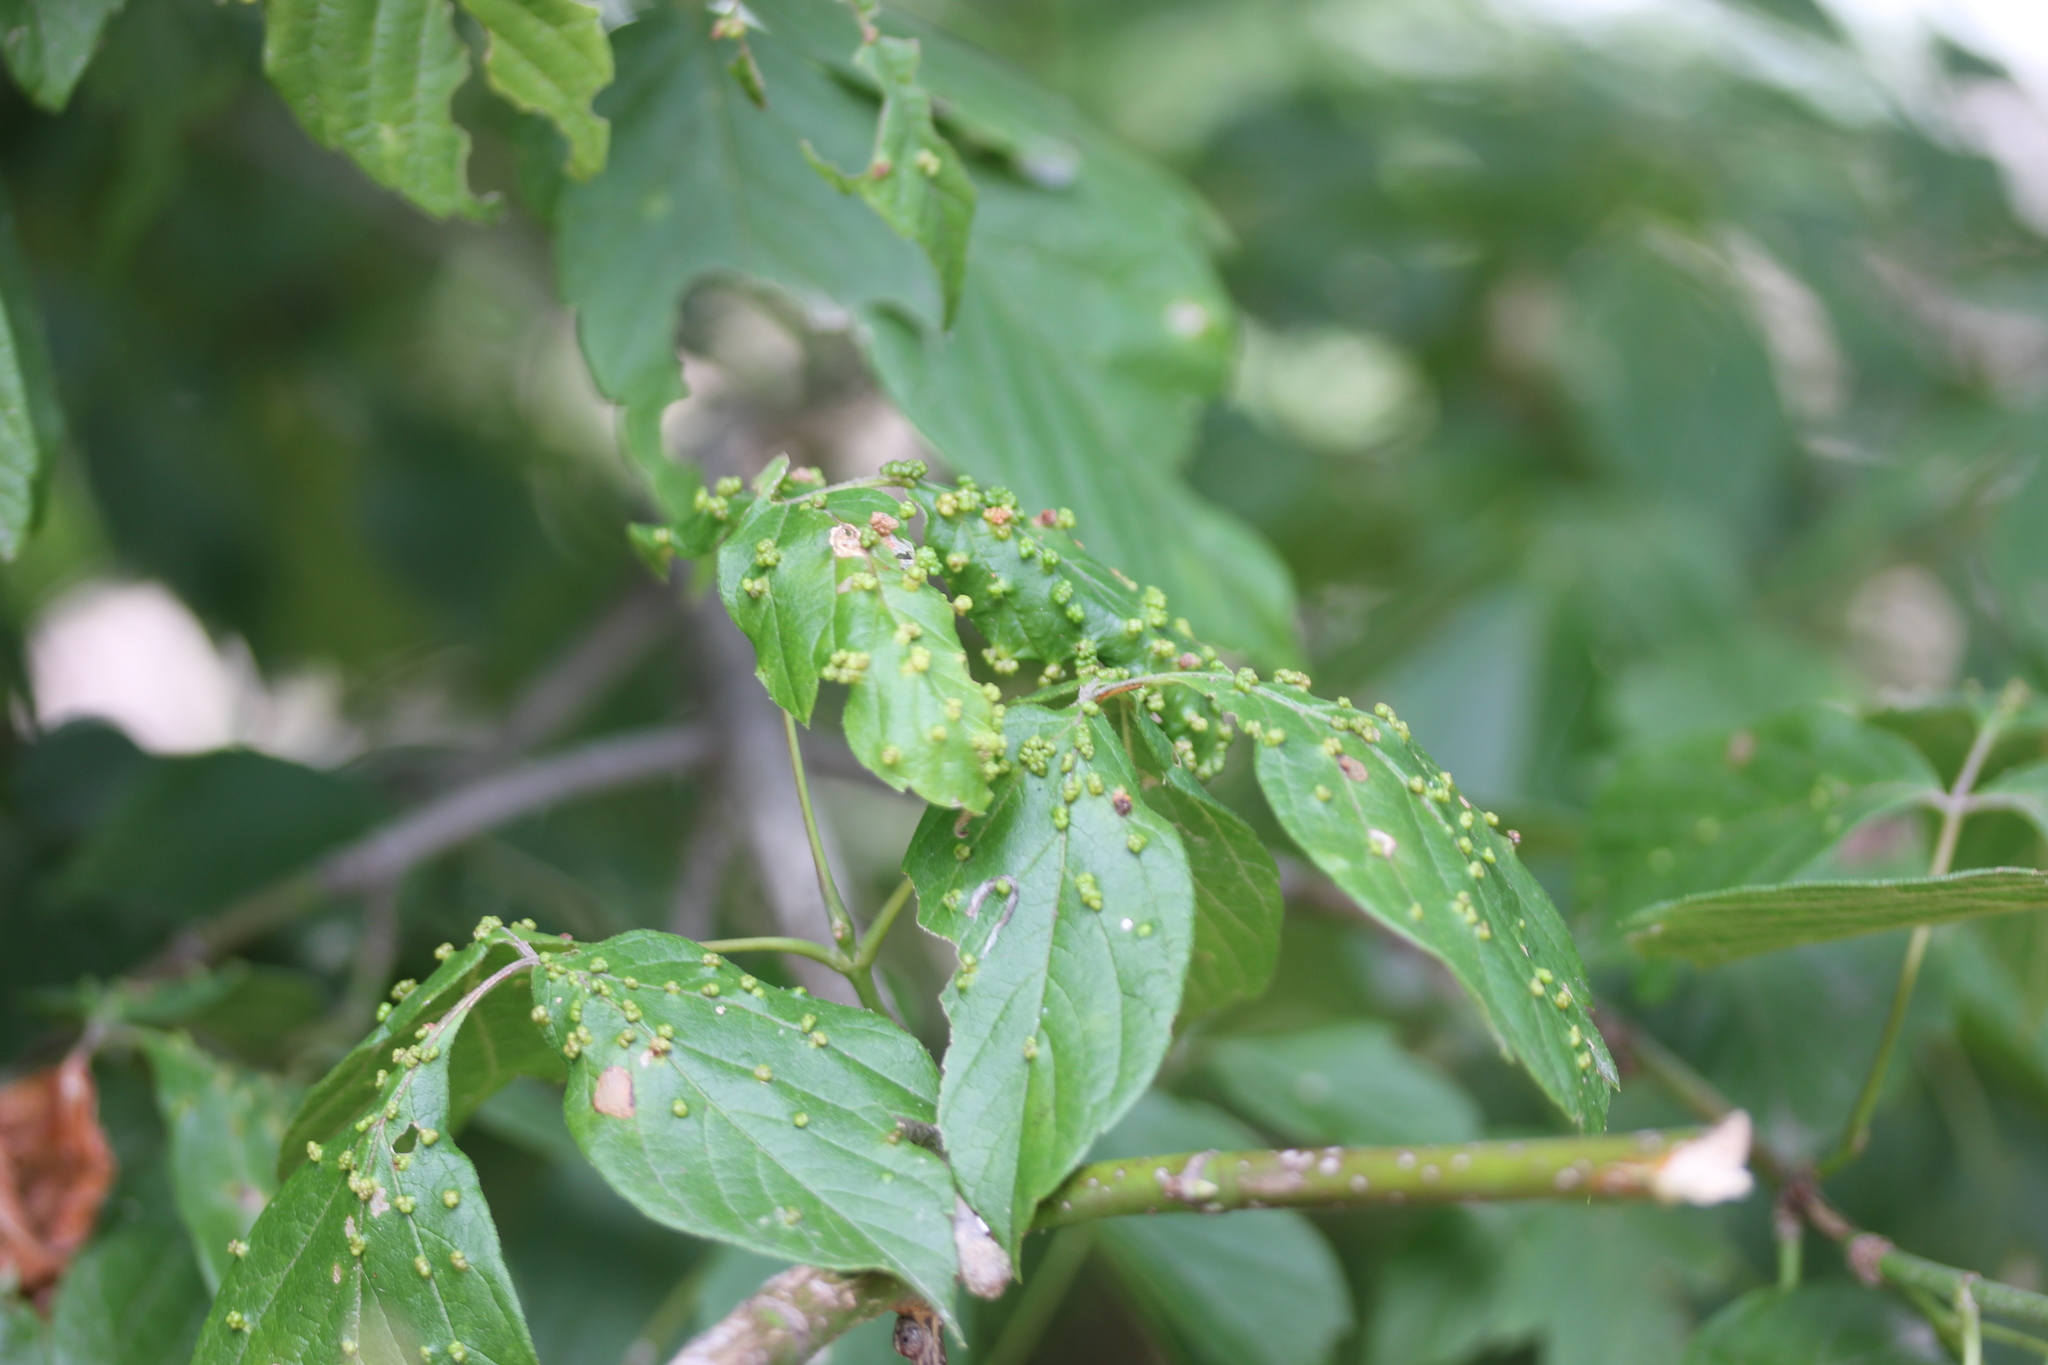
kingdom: Animalia
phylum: Arthropoda
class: Arachnida
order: Trombidiformes
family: Eriophyidae
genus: Aceria
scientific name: Aceria
